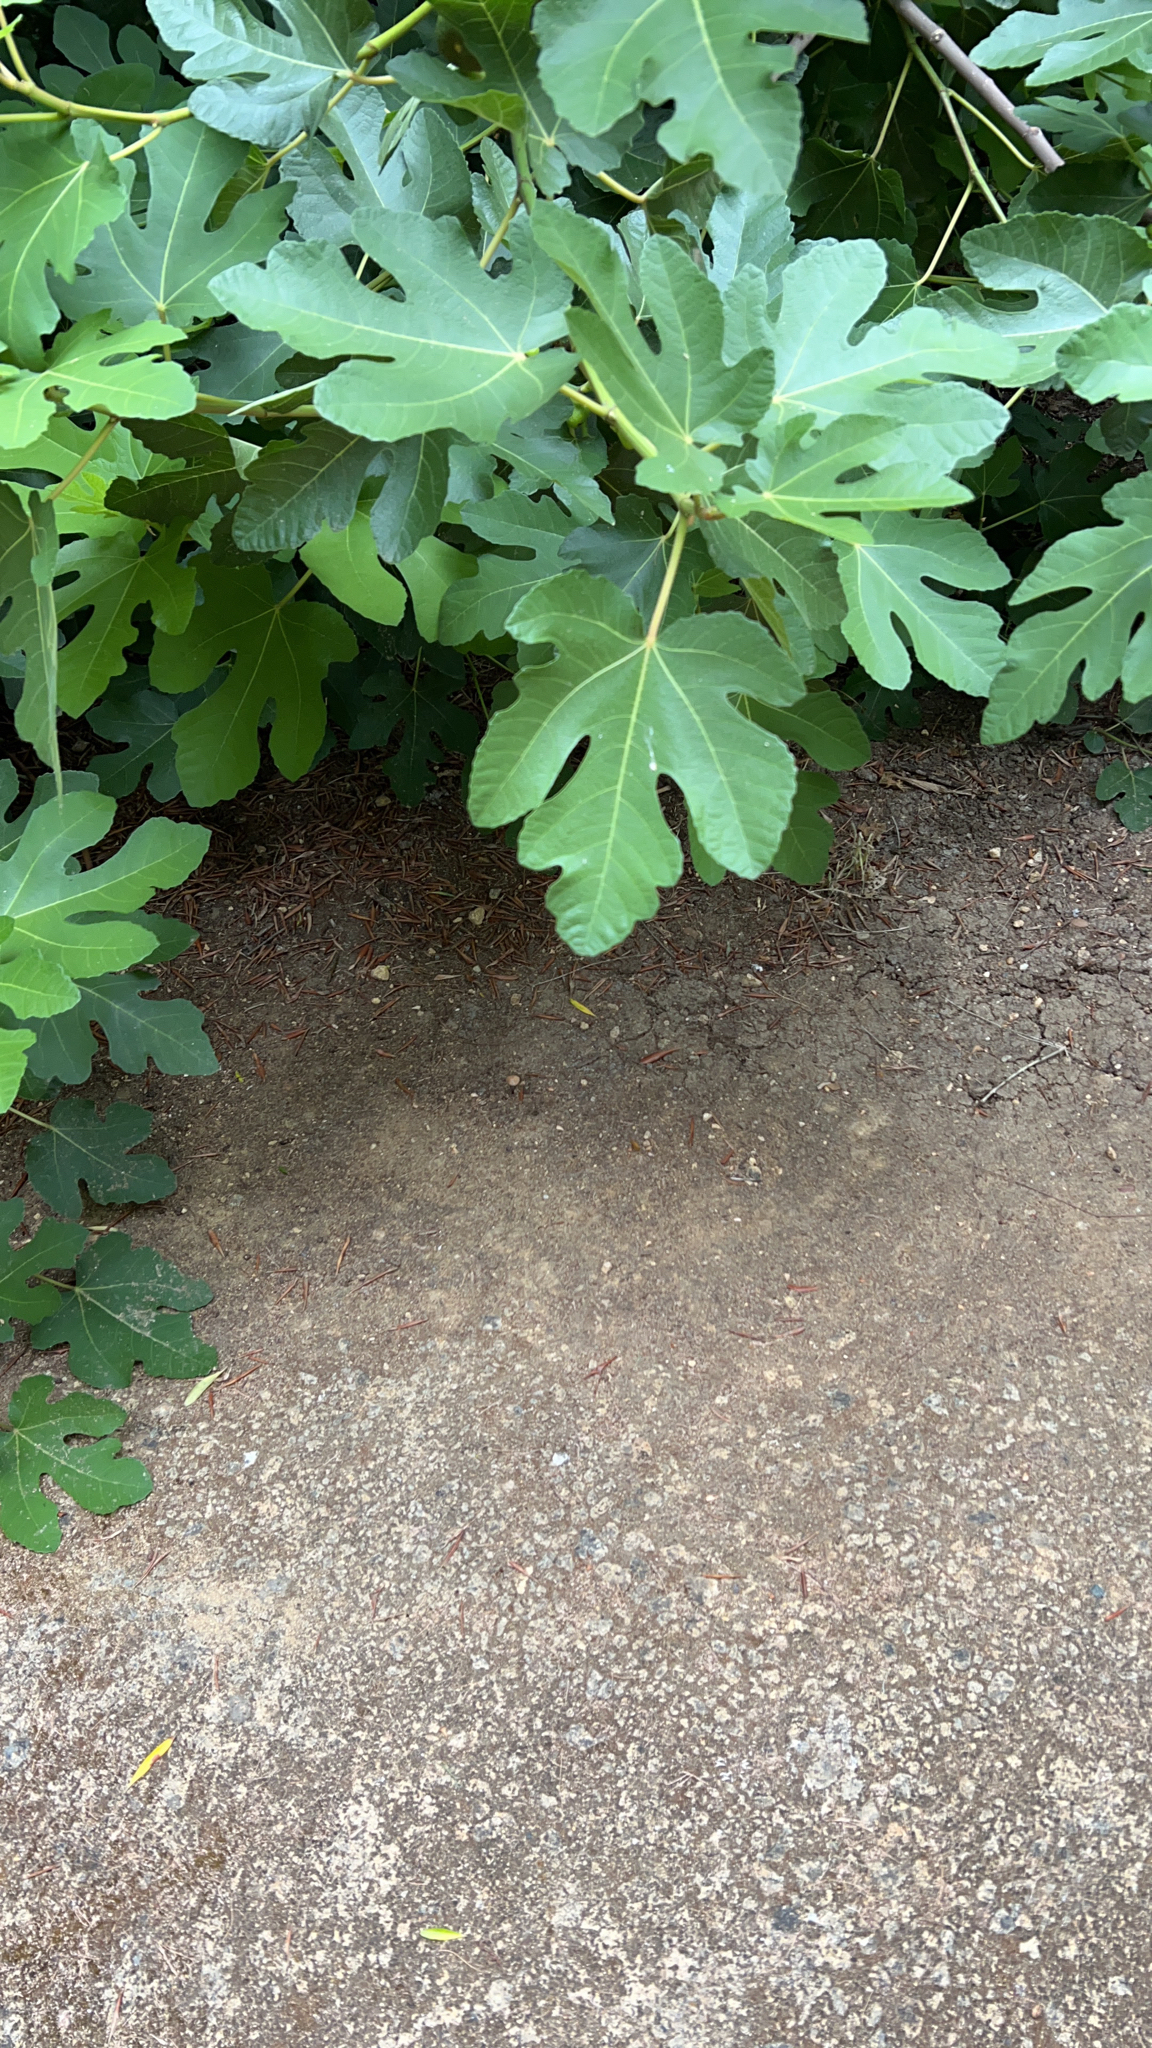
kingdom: Plantae
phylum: Tracheophyta
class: Magnoliopsida
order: Rosales
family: Moraceae
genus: Ficus
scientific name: Ficus carica
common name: Fig
